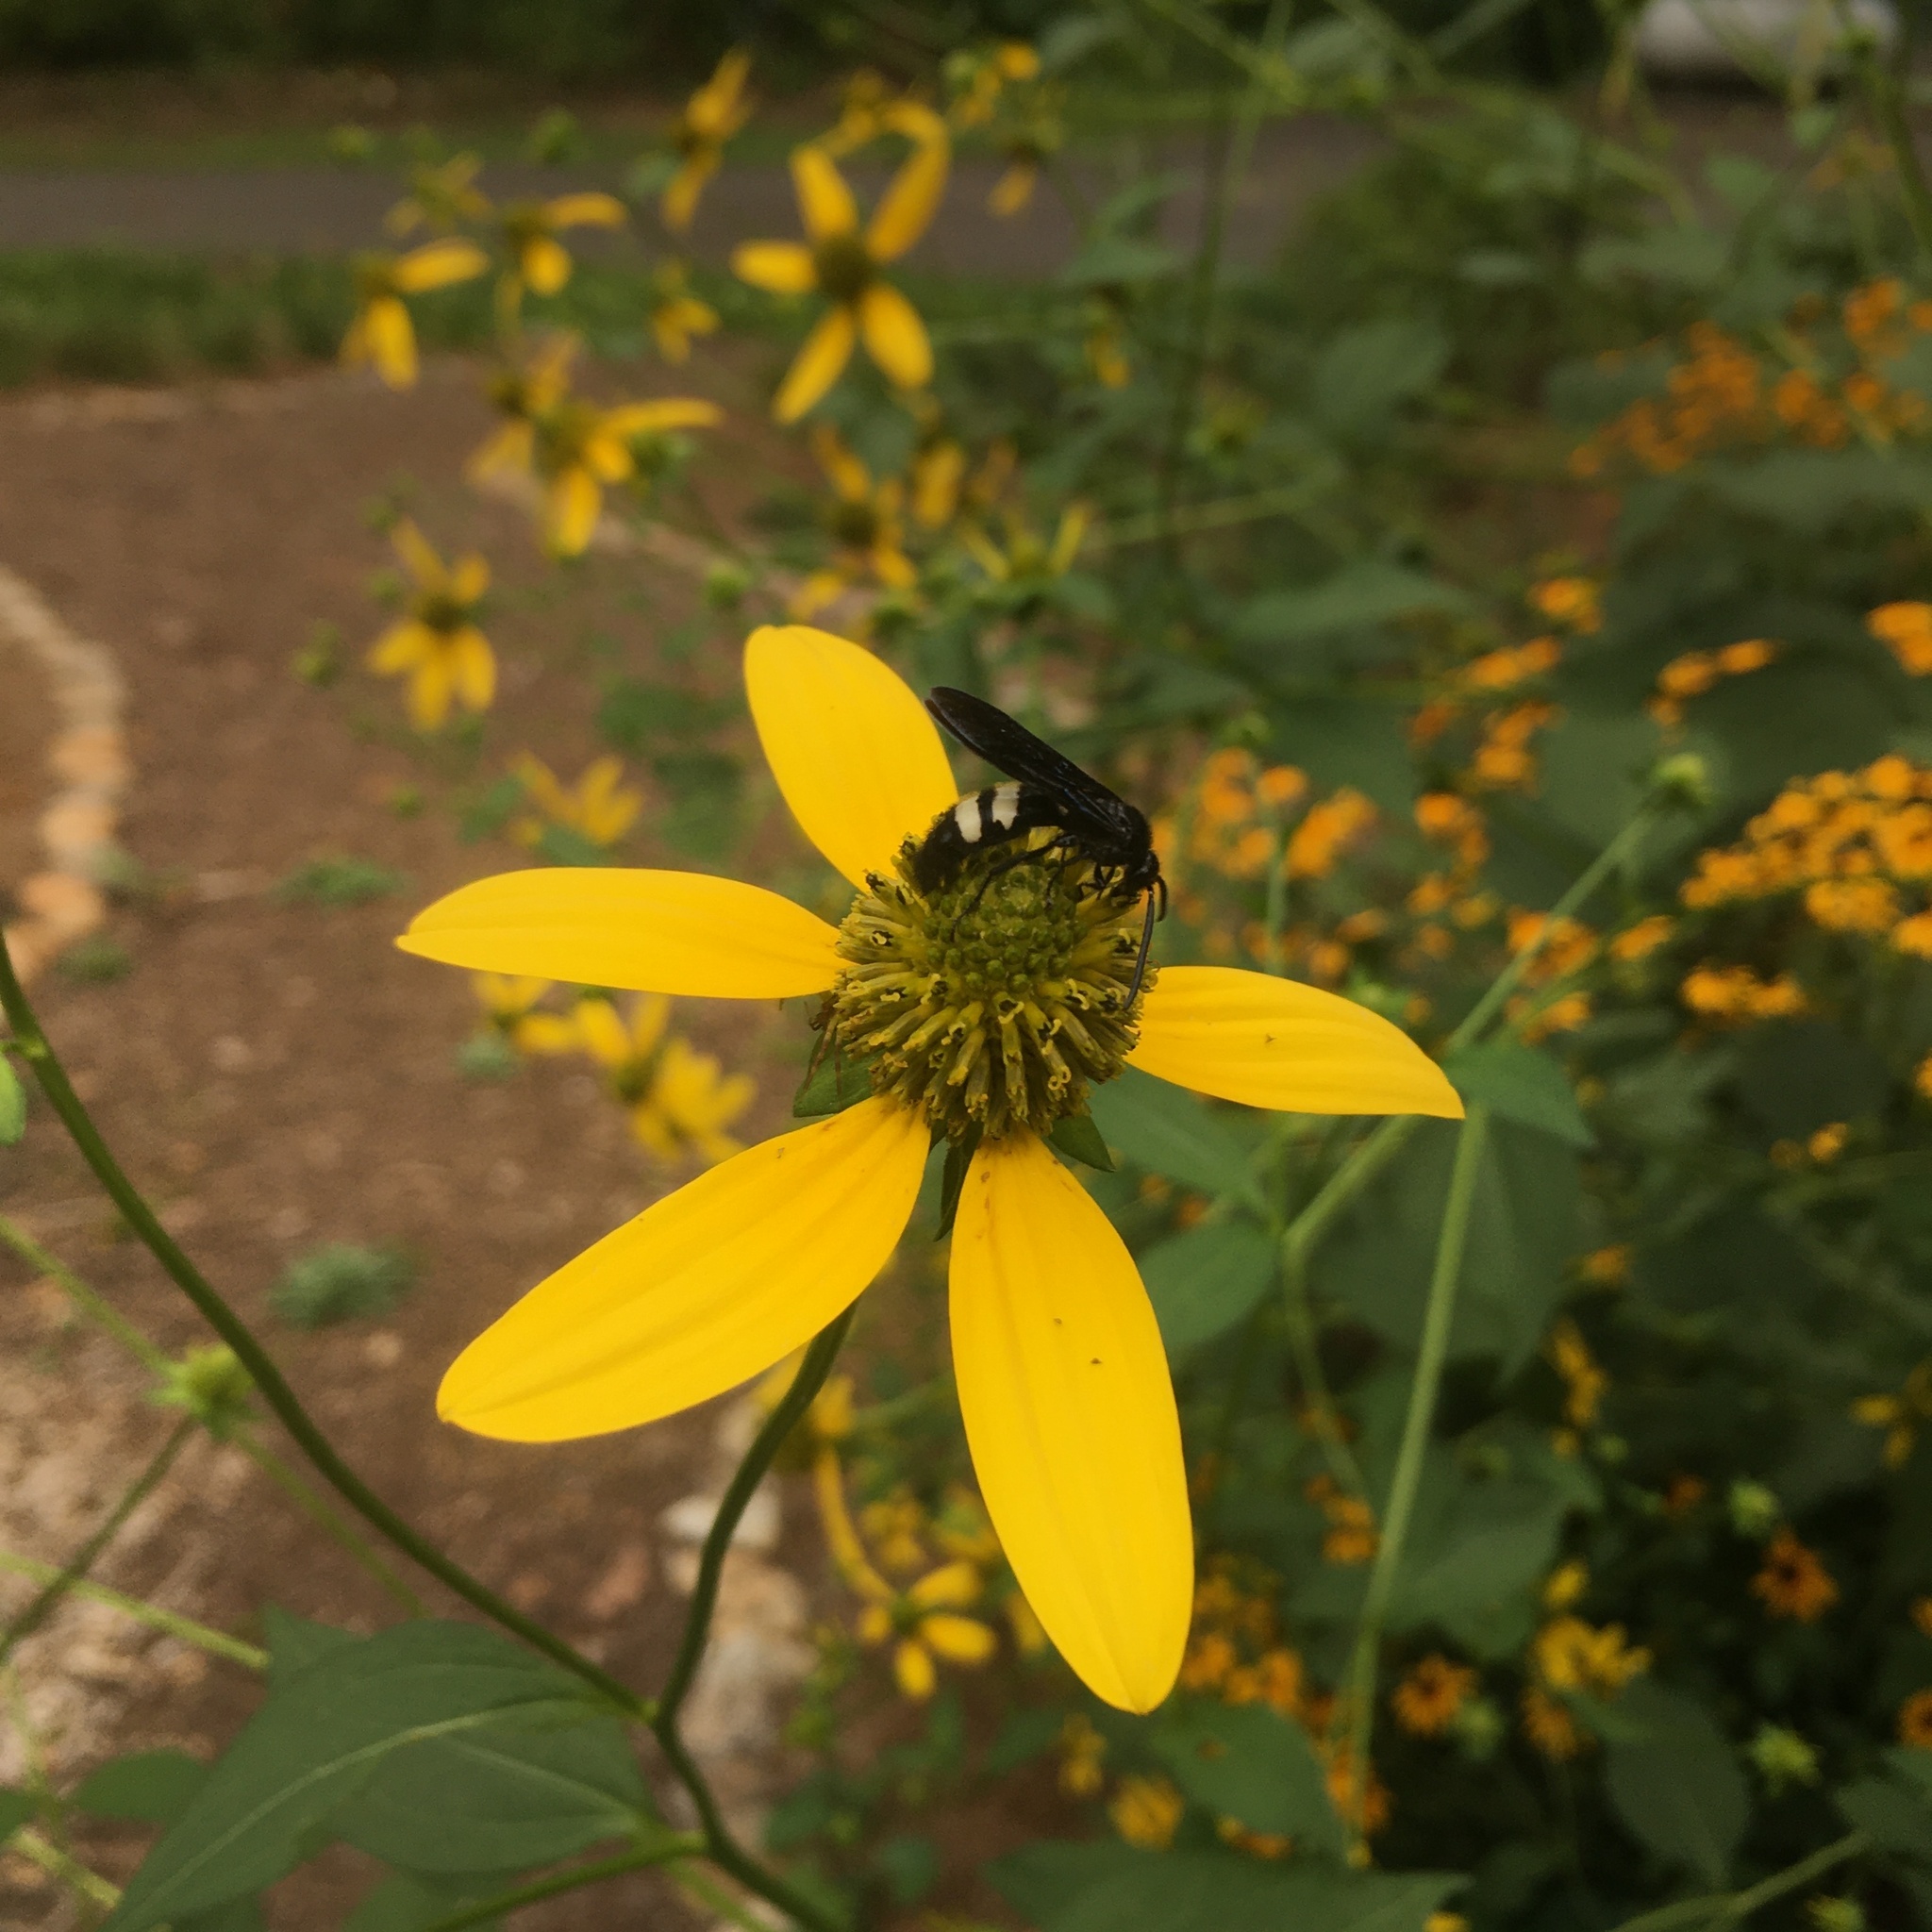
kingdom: Animalia
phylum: Arthropoda
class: Insecta
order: Hymenoptera
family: Scoliidae
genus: Scolia
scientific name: Scolia bicincta
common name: Double-banded scoliid wasp
